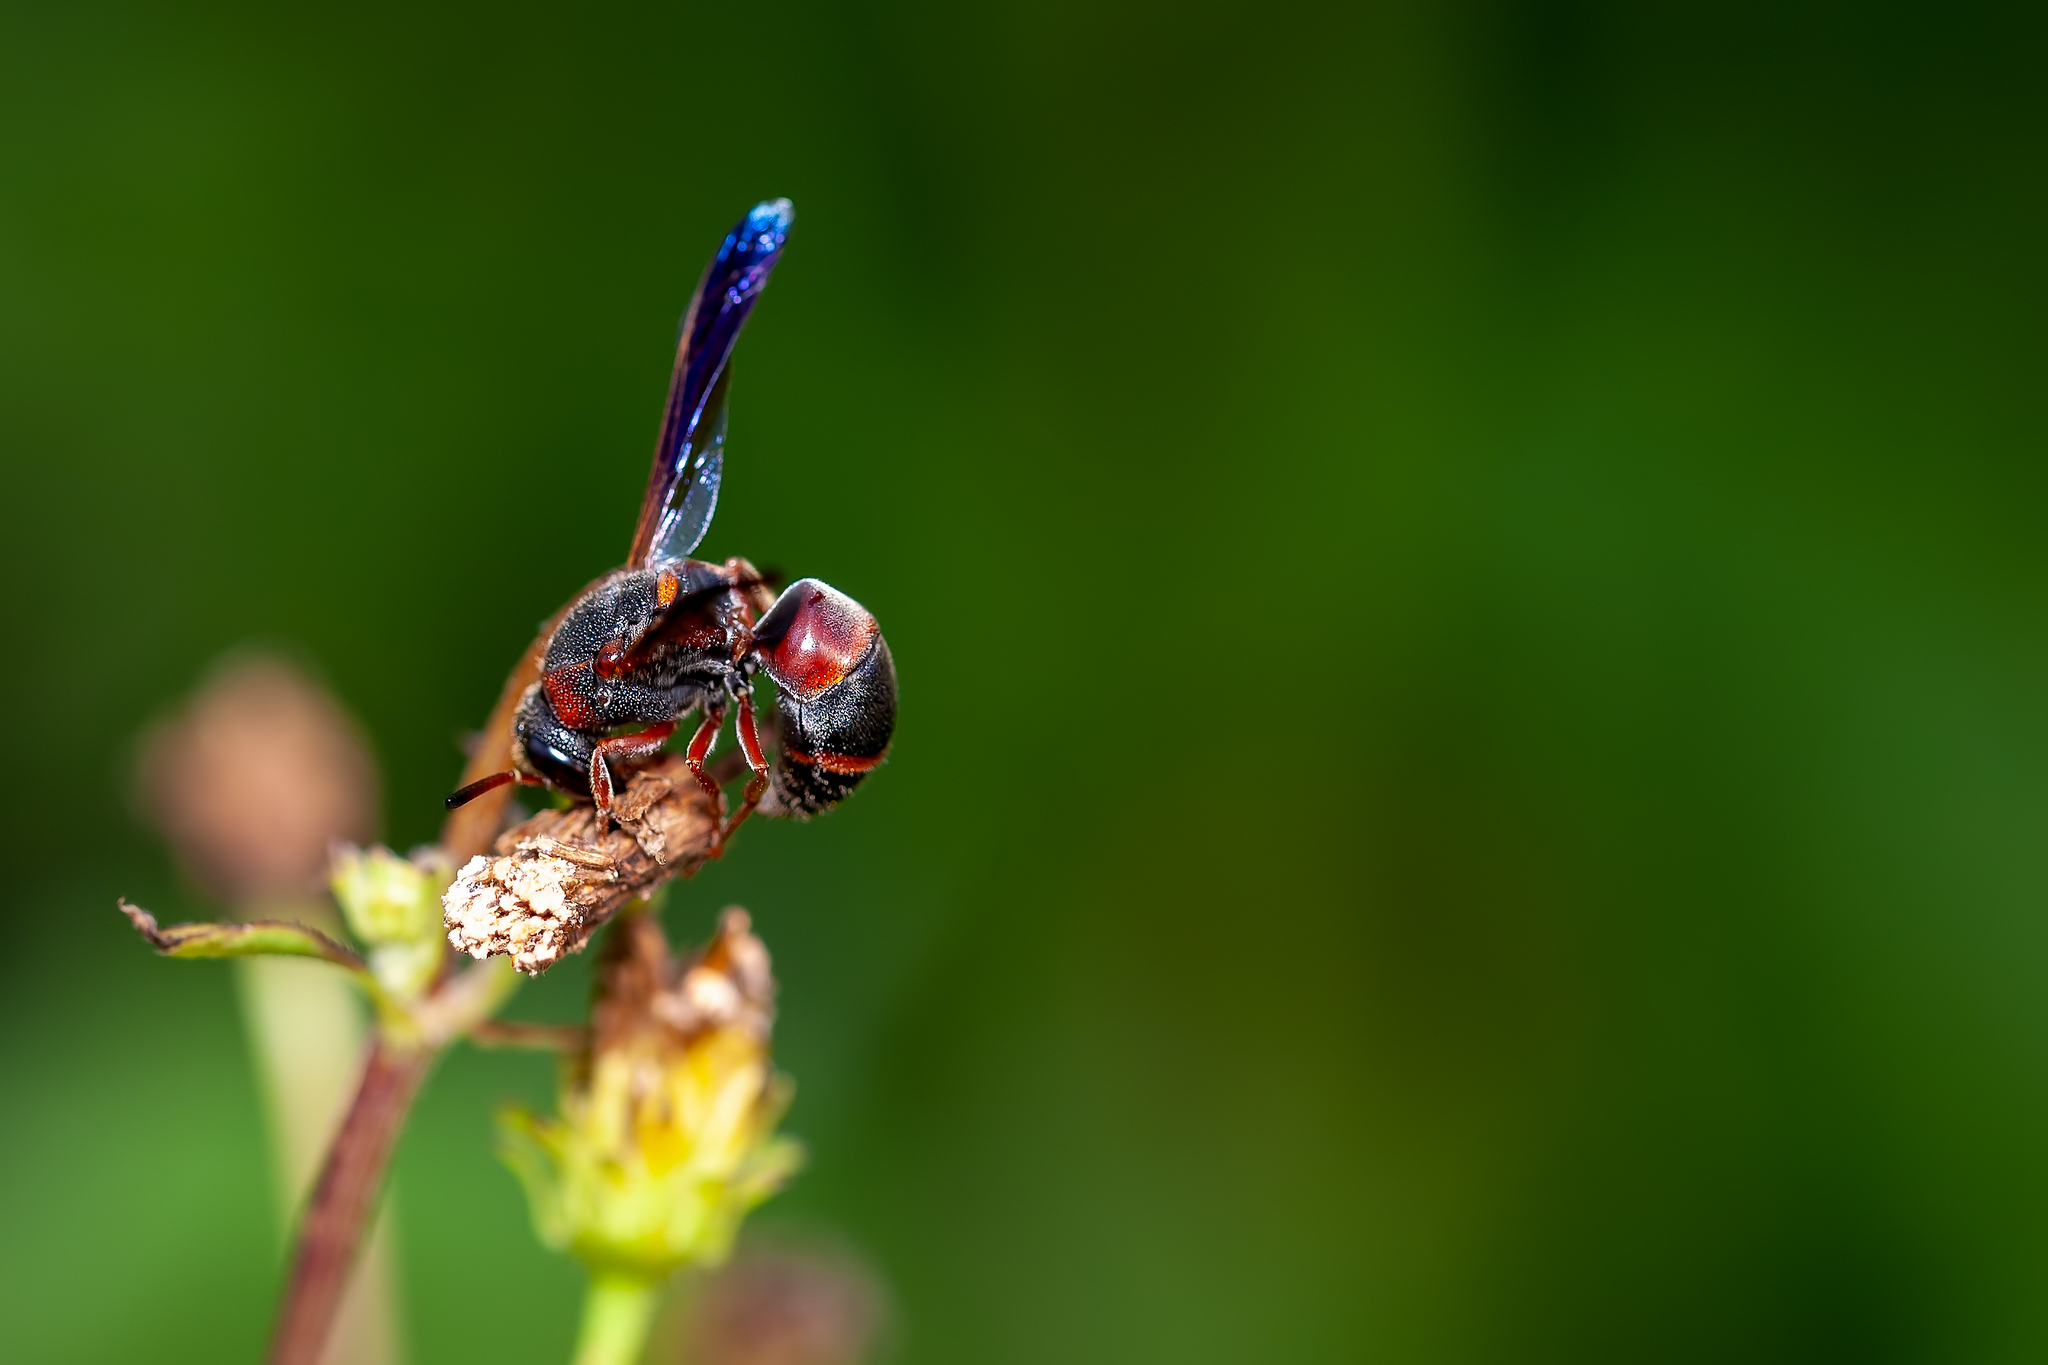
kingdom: Animalia
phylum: Arthropoda
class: Insecta
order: Hymenoptera
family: Eumenidae
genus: Pachodynerus
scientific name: Pachodynerus erynnis
